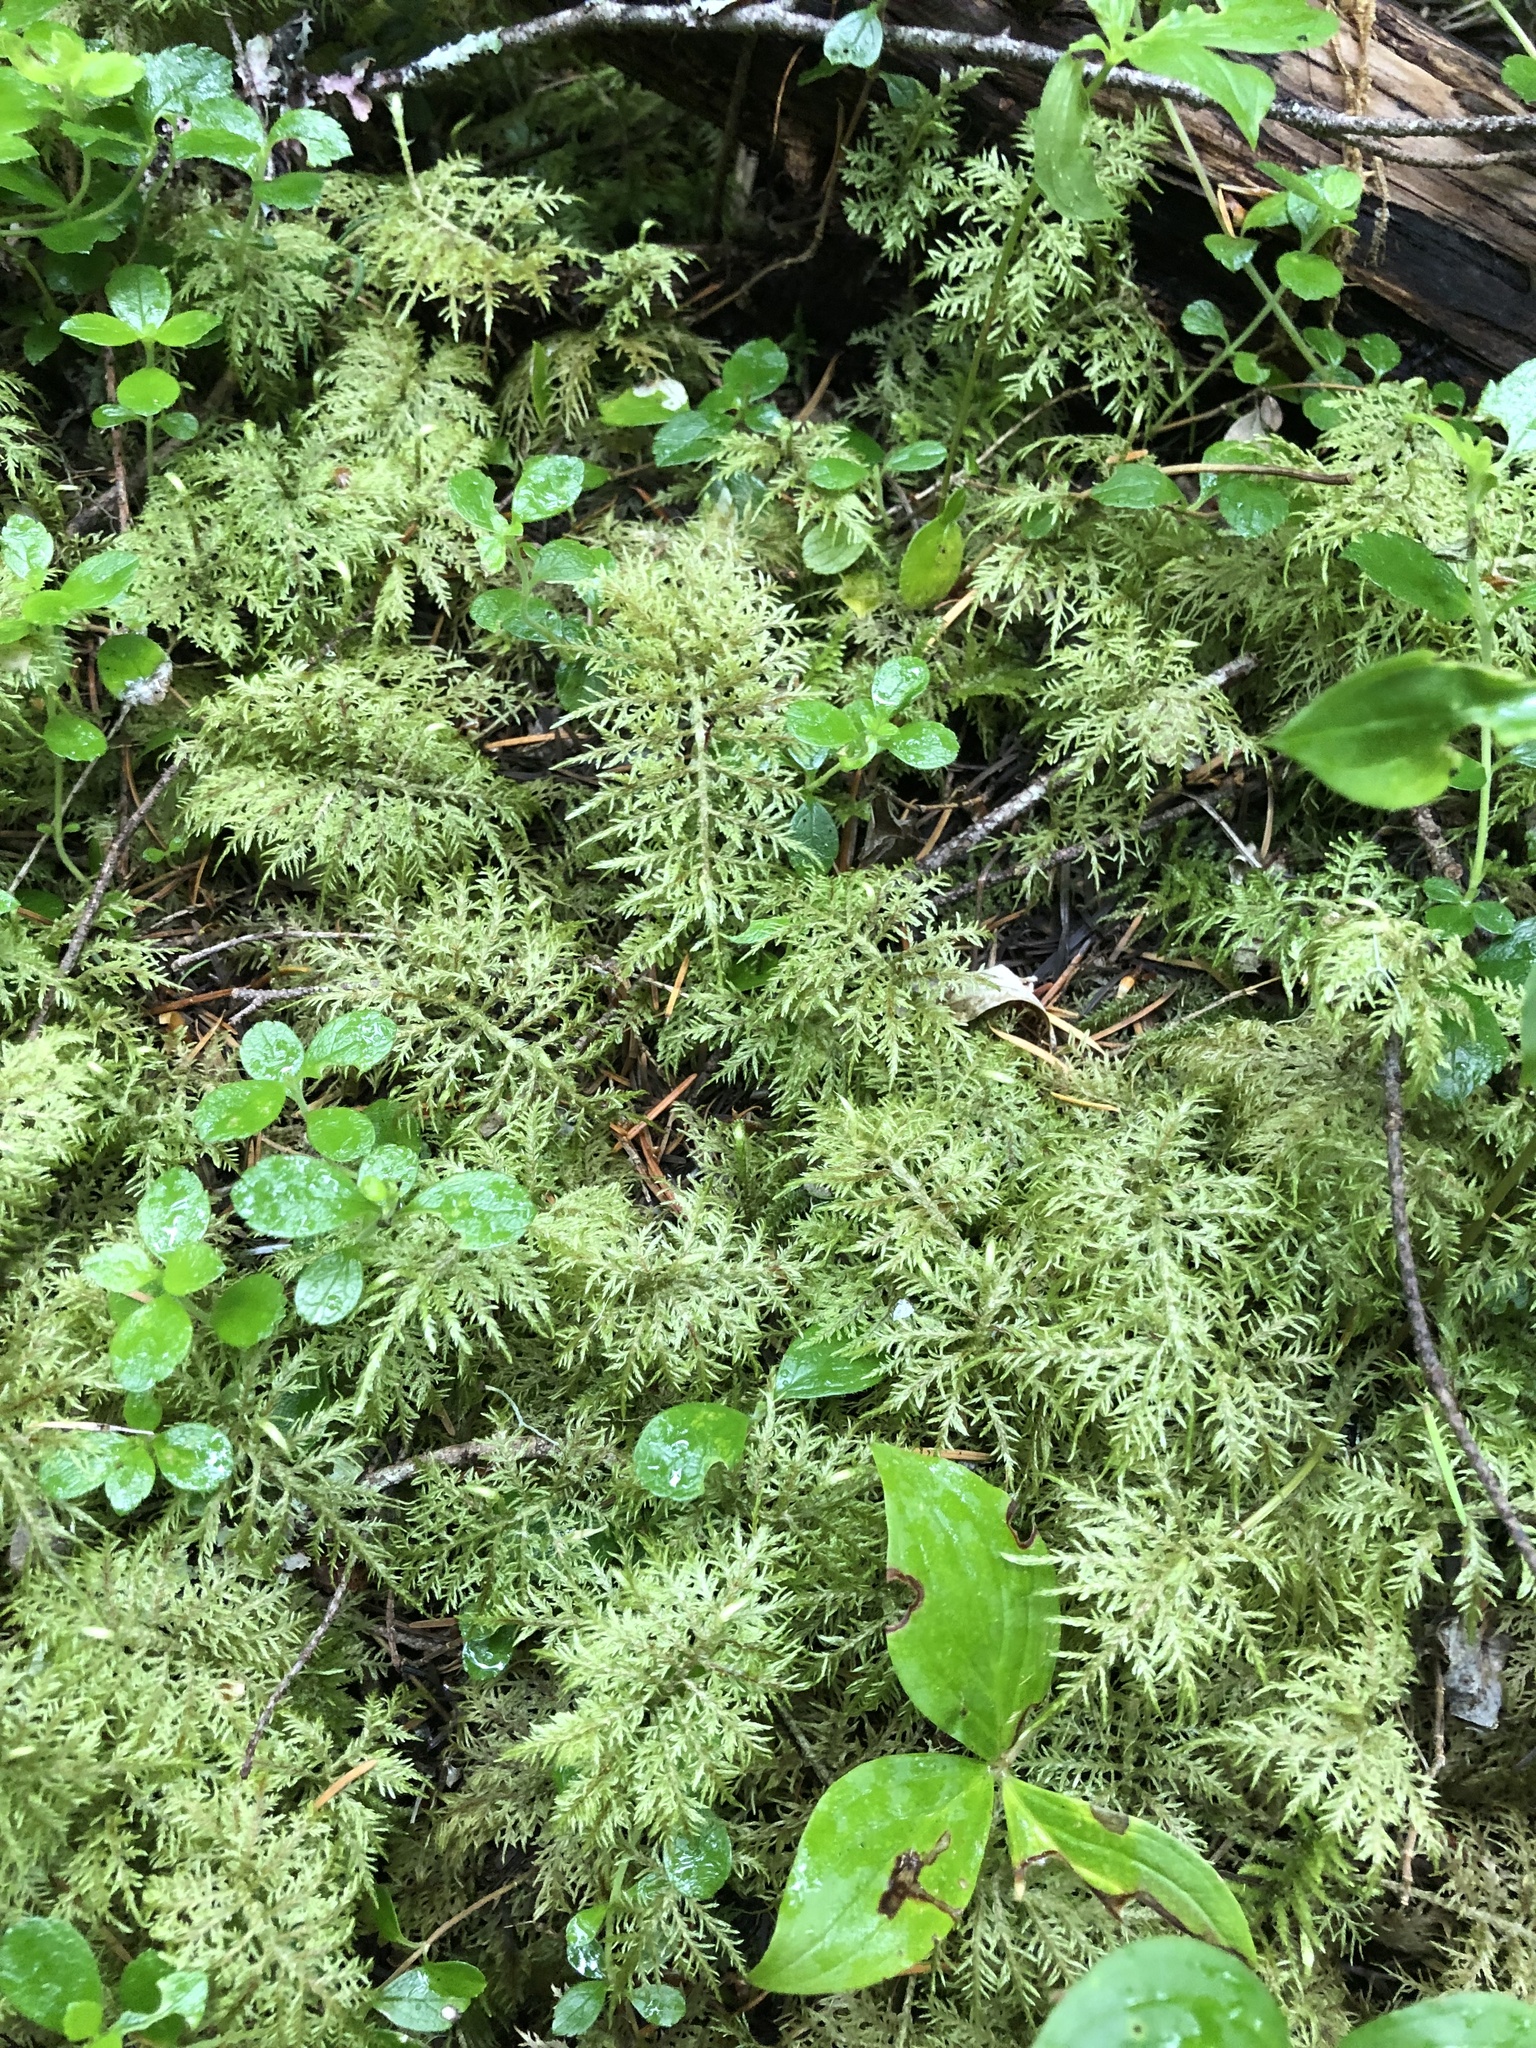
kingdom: Plantae
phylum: Bryophyta
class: Bryopsida
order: Hypnales
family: Hylocomiaceae
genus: Hylocomium
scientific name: Hylocomium splendens
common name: Stairstep moss
